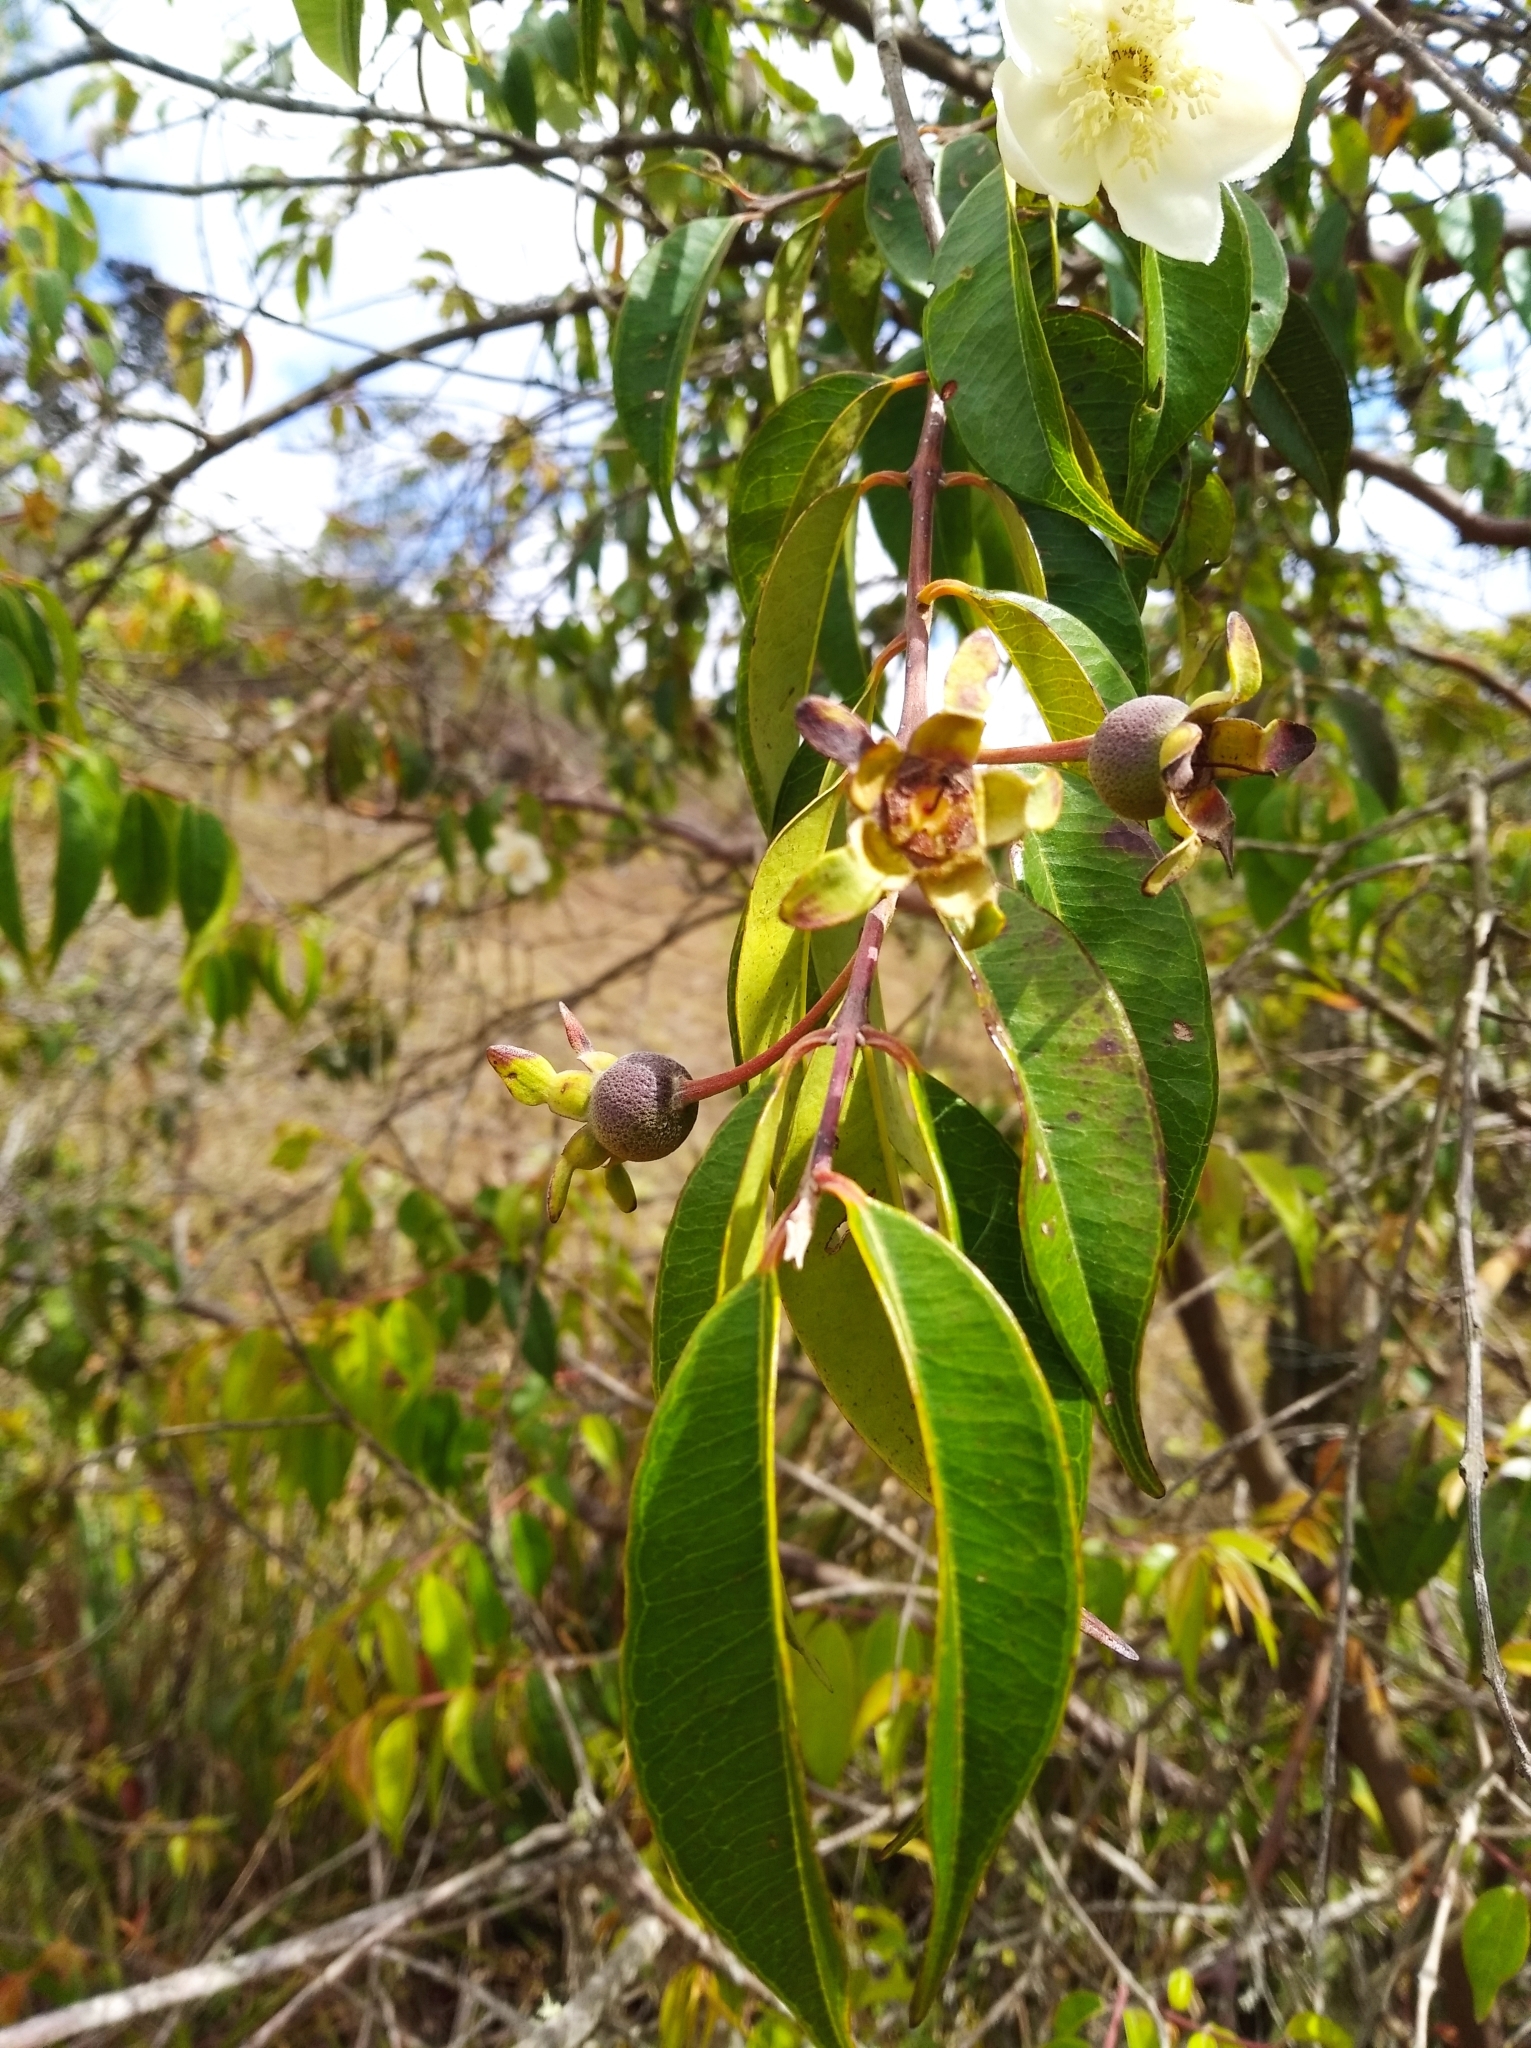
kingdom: Plantae
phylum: Tracheophyta
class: Magnoliopsida
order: Myrtales
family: Myrtaceae
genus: Calycolpus
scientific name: Calycolpus moritzianus
